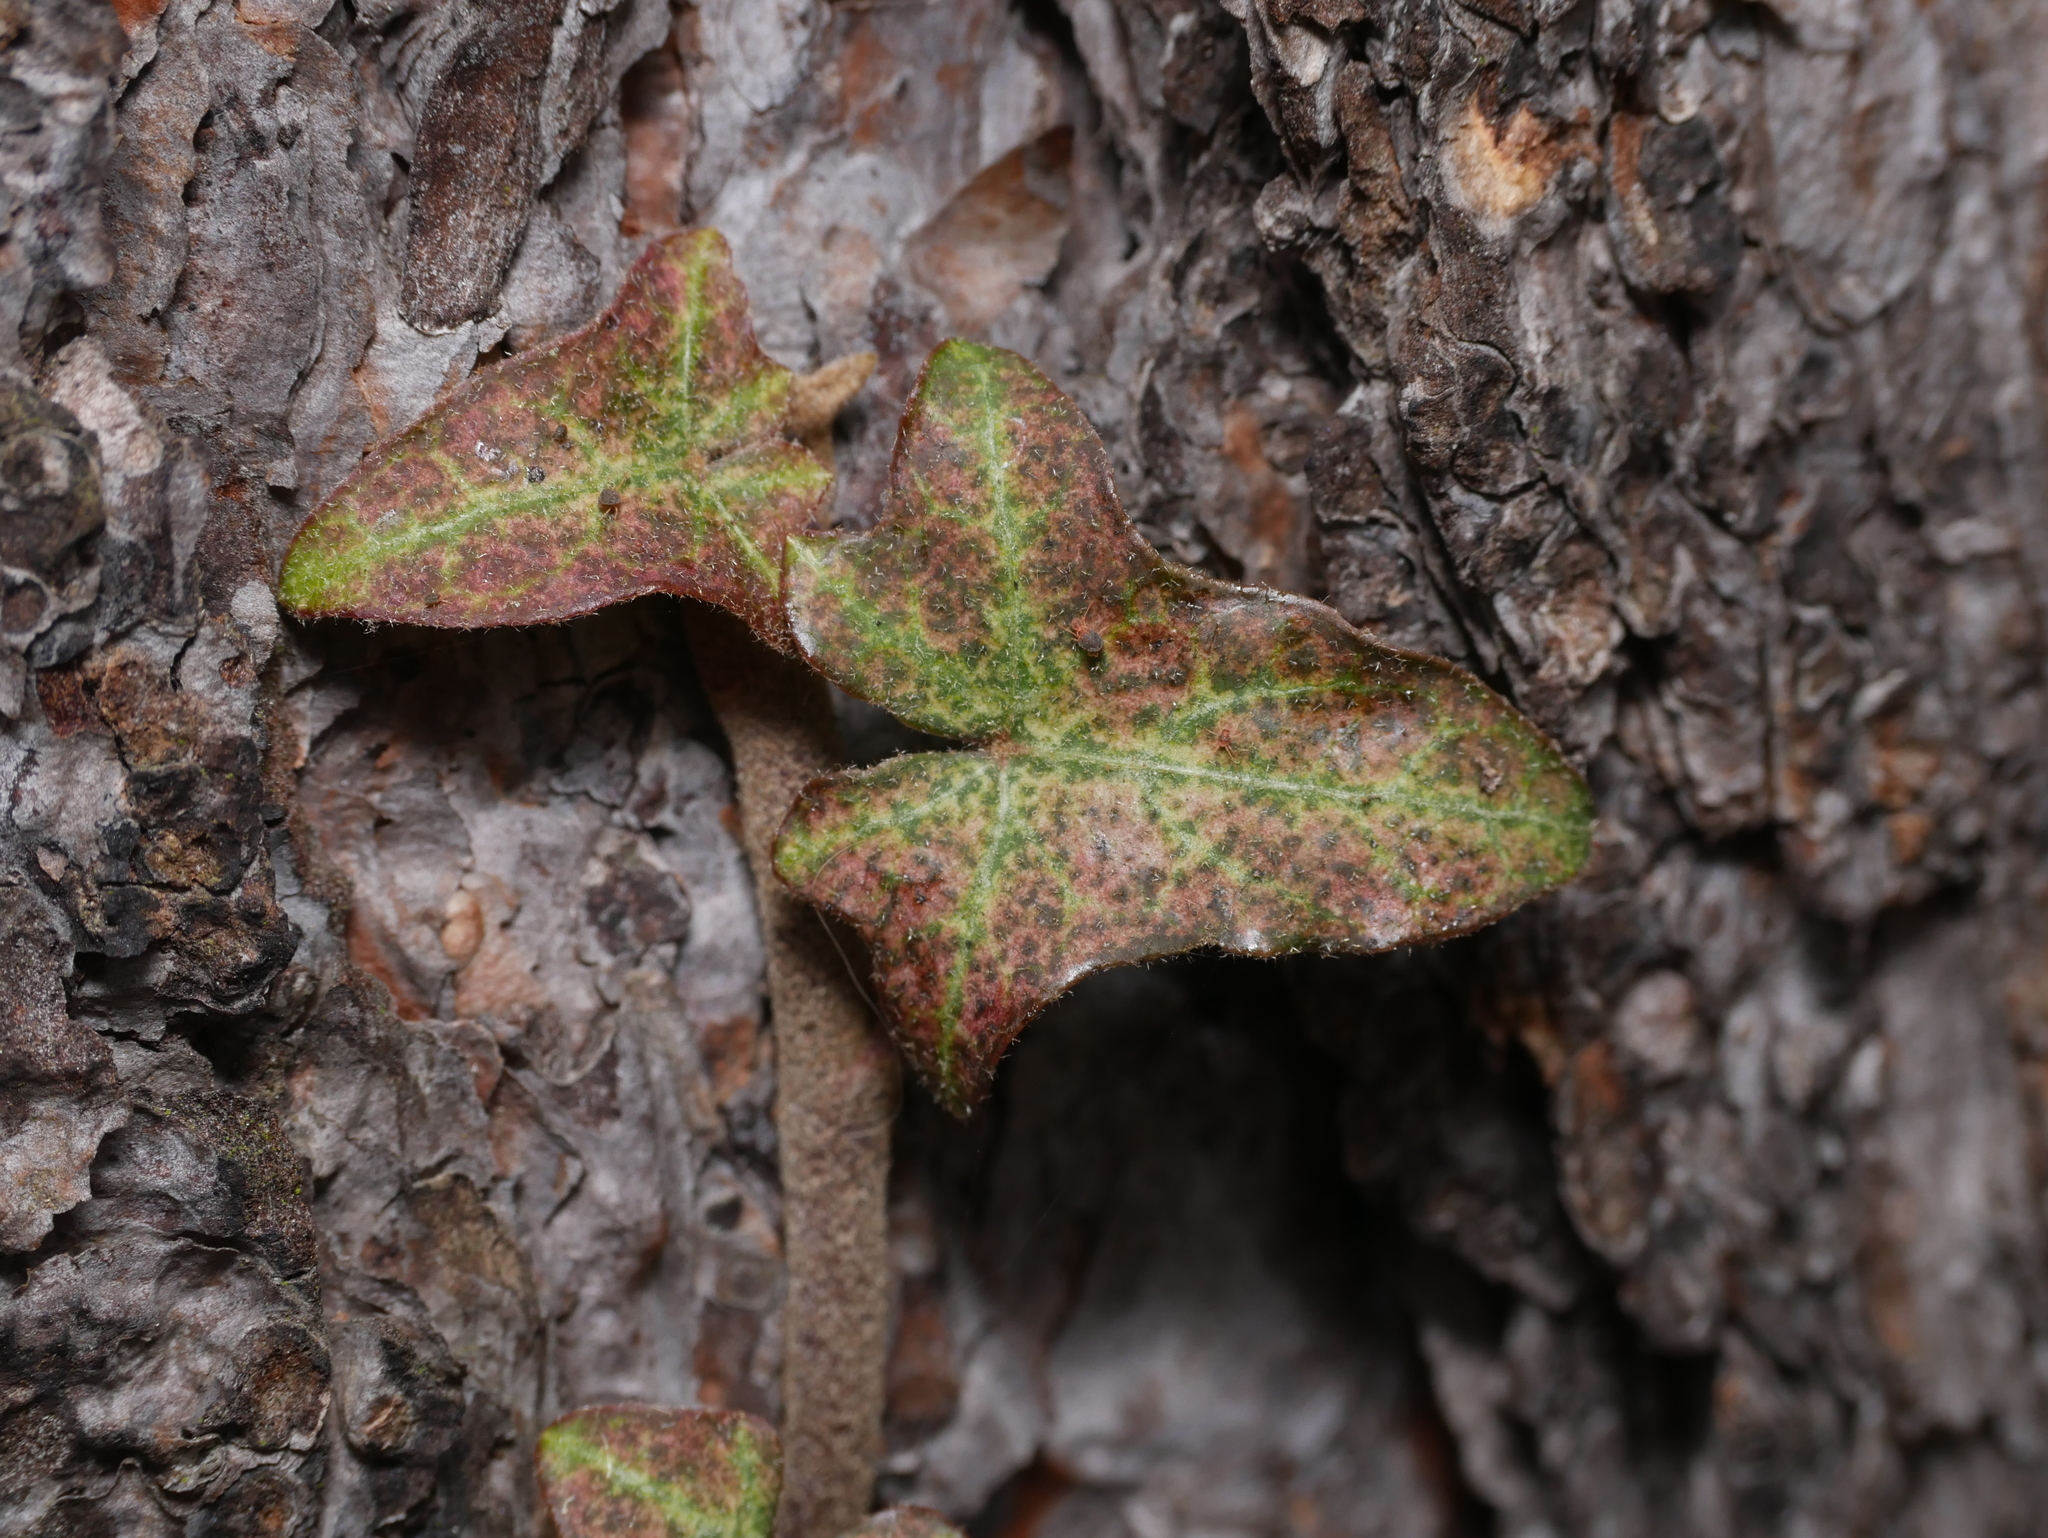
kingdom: Plantae
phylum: Tracheophyta
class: Magnoliopsida
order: Apiales
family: Araliaceae
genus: Hedera
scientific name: Hedera helix
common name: Ivy
